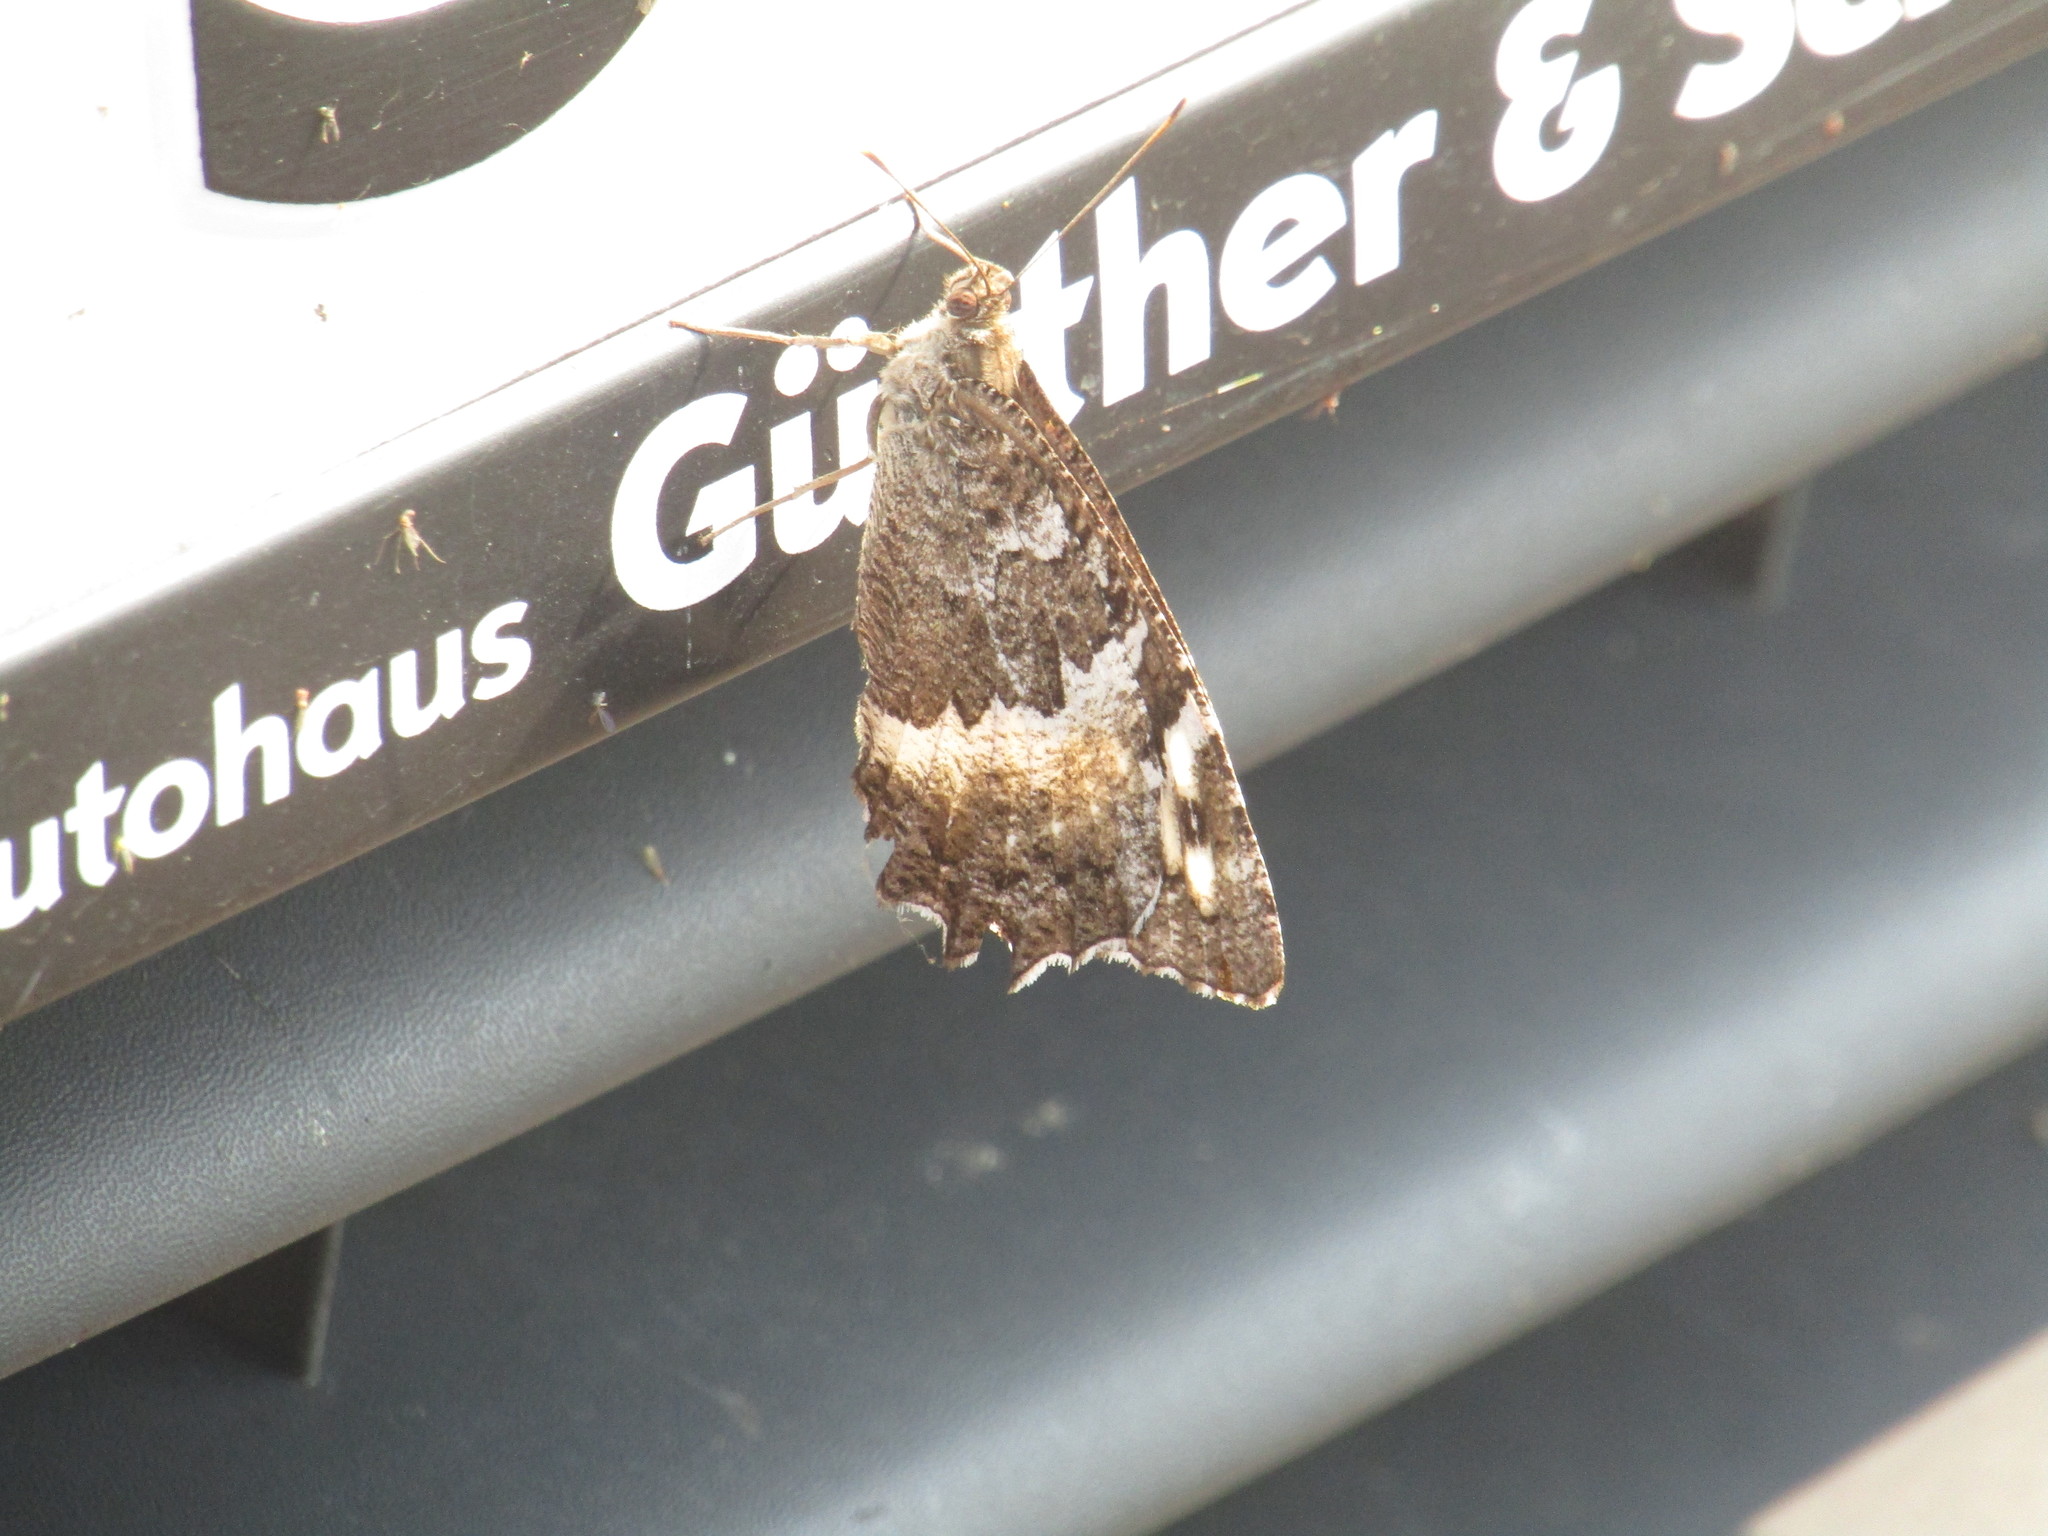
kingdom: Animalia
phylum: Arthropoda
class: Insecta
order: Lepidoptera
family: Lycaenidae
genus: Loweia
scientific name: Loweia tityrus
